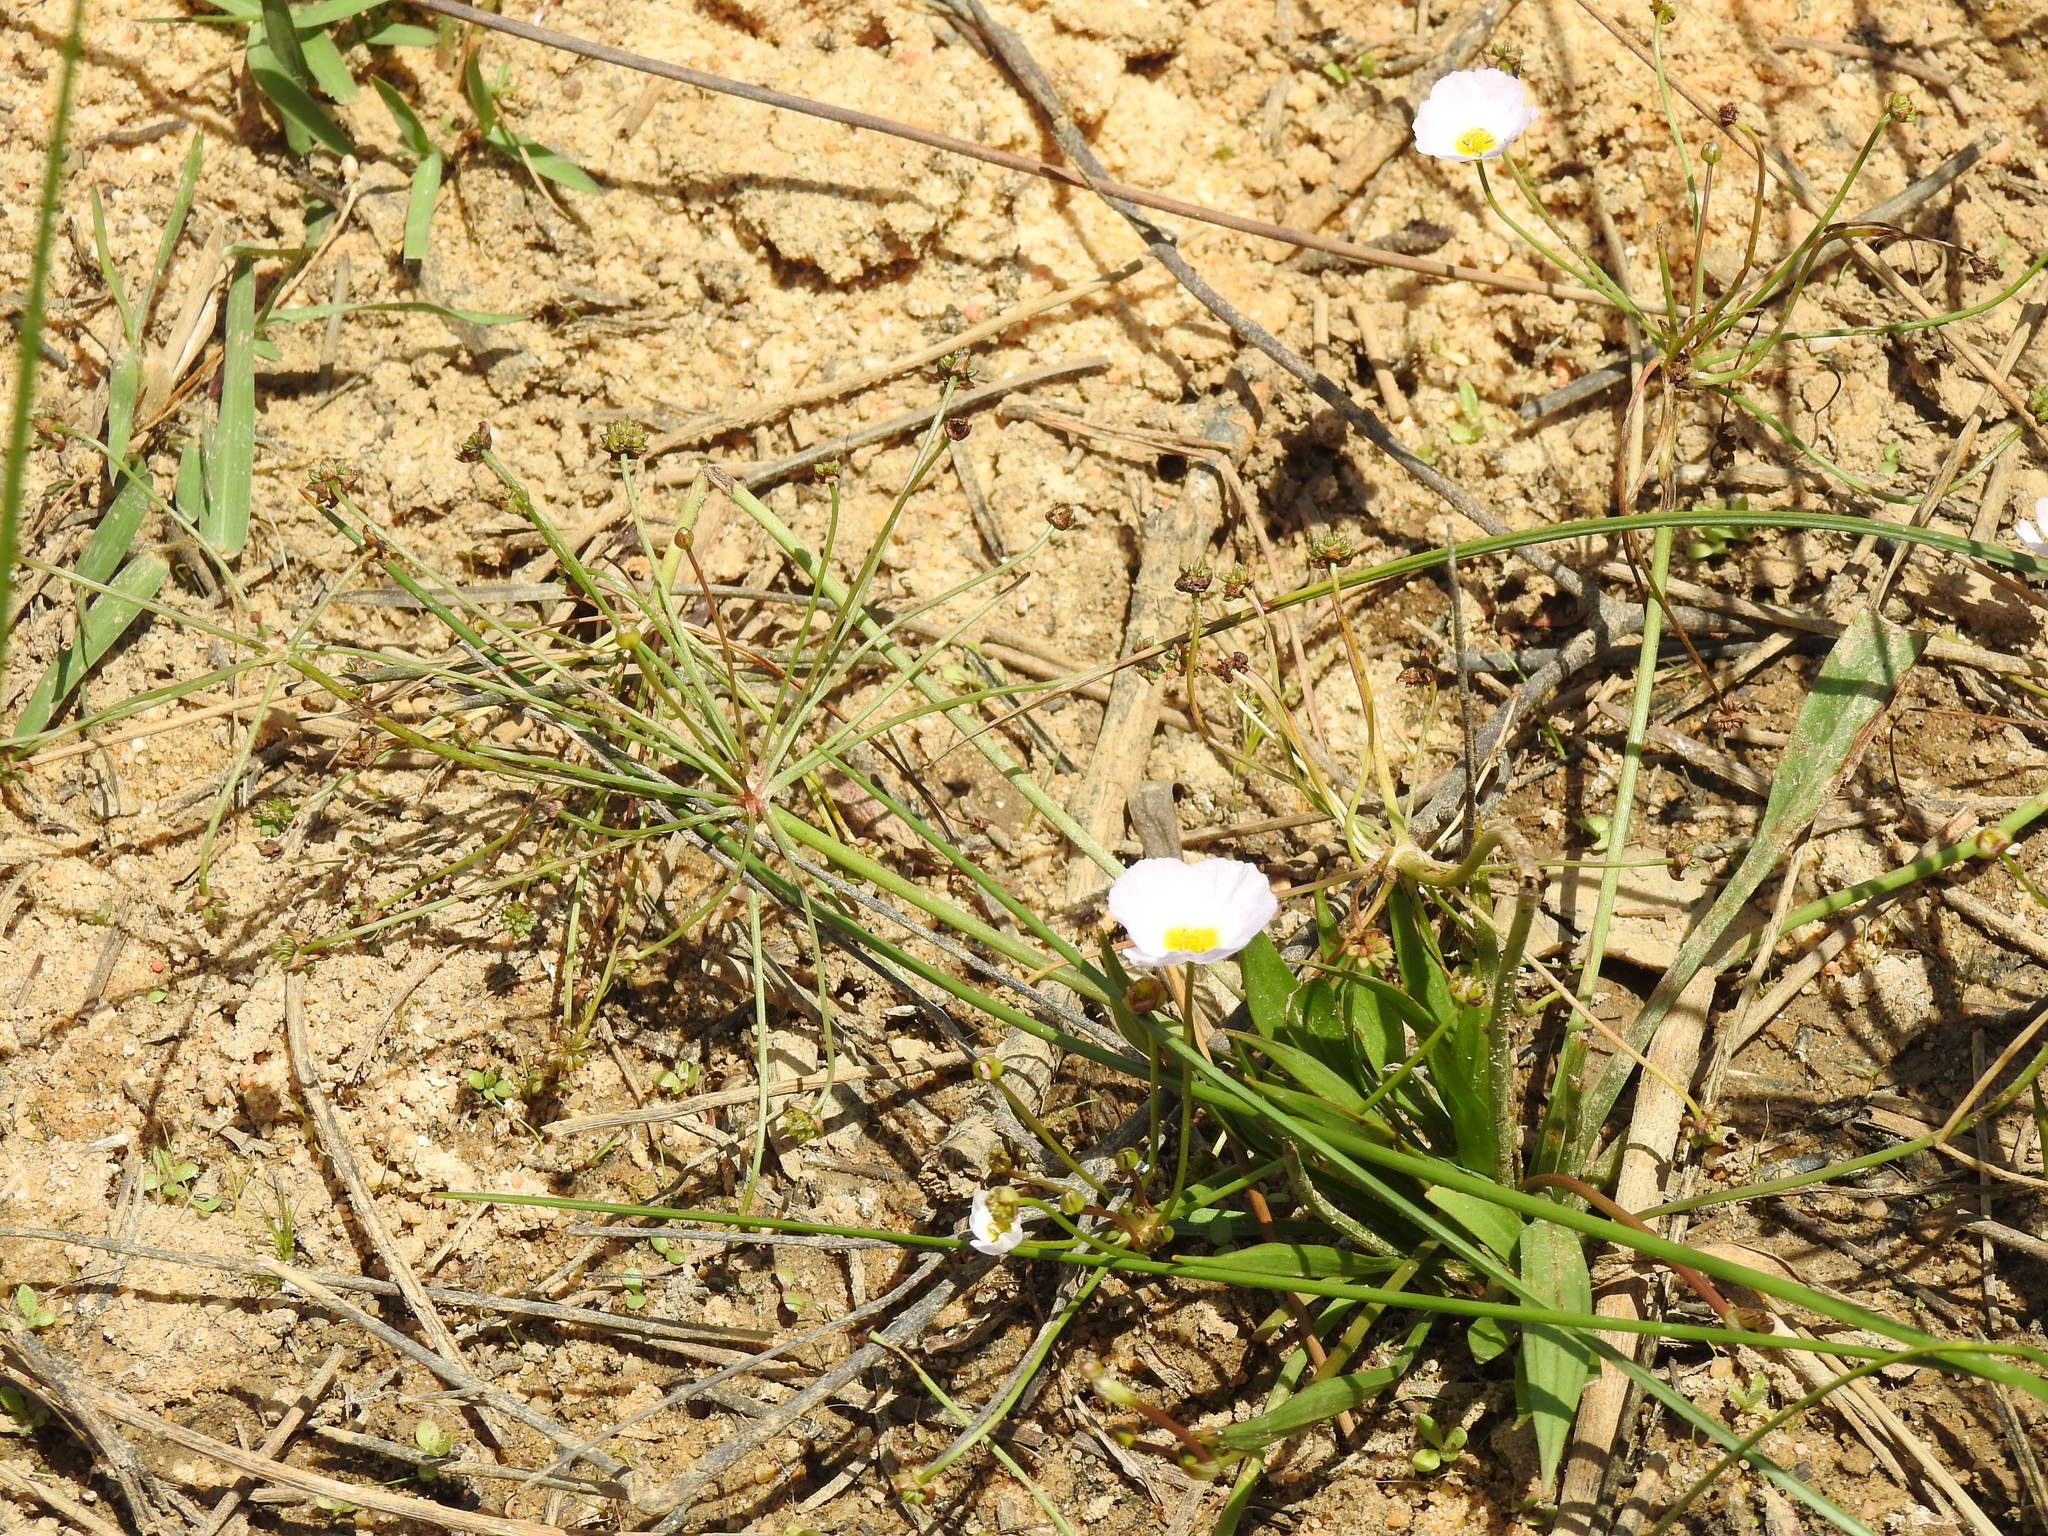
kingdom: Plantae
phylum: Tracheophyta
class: Liliopsida
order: Alismatales
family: Alismataceae
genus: Baldellia
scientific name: Baldellia repens
